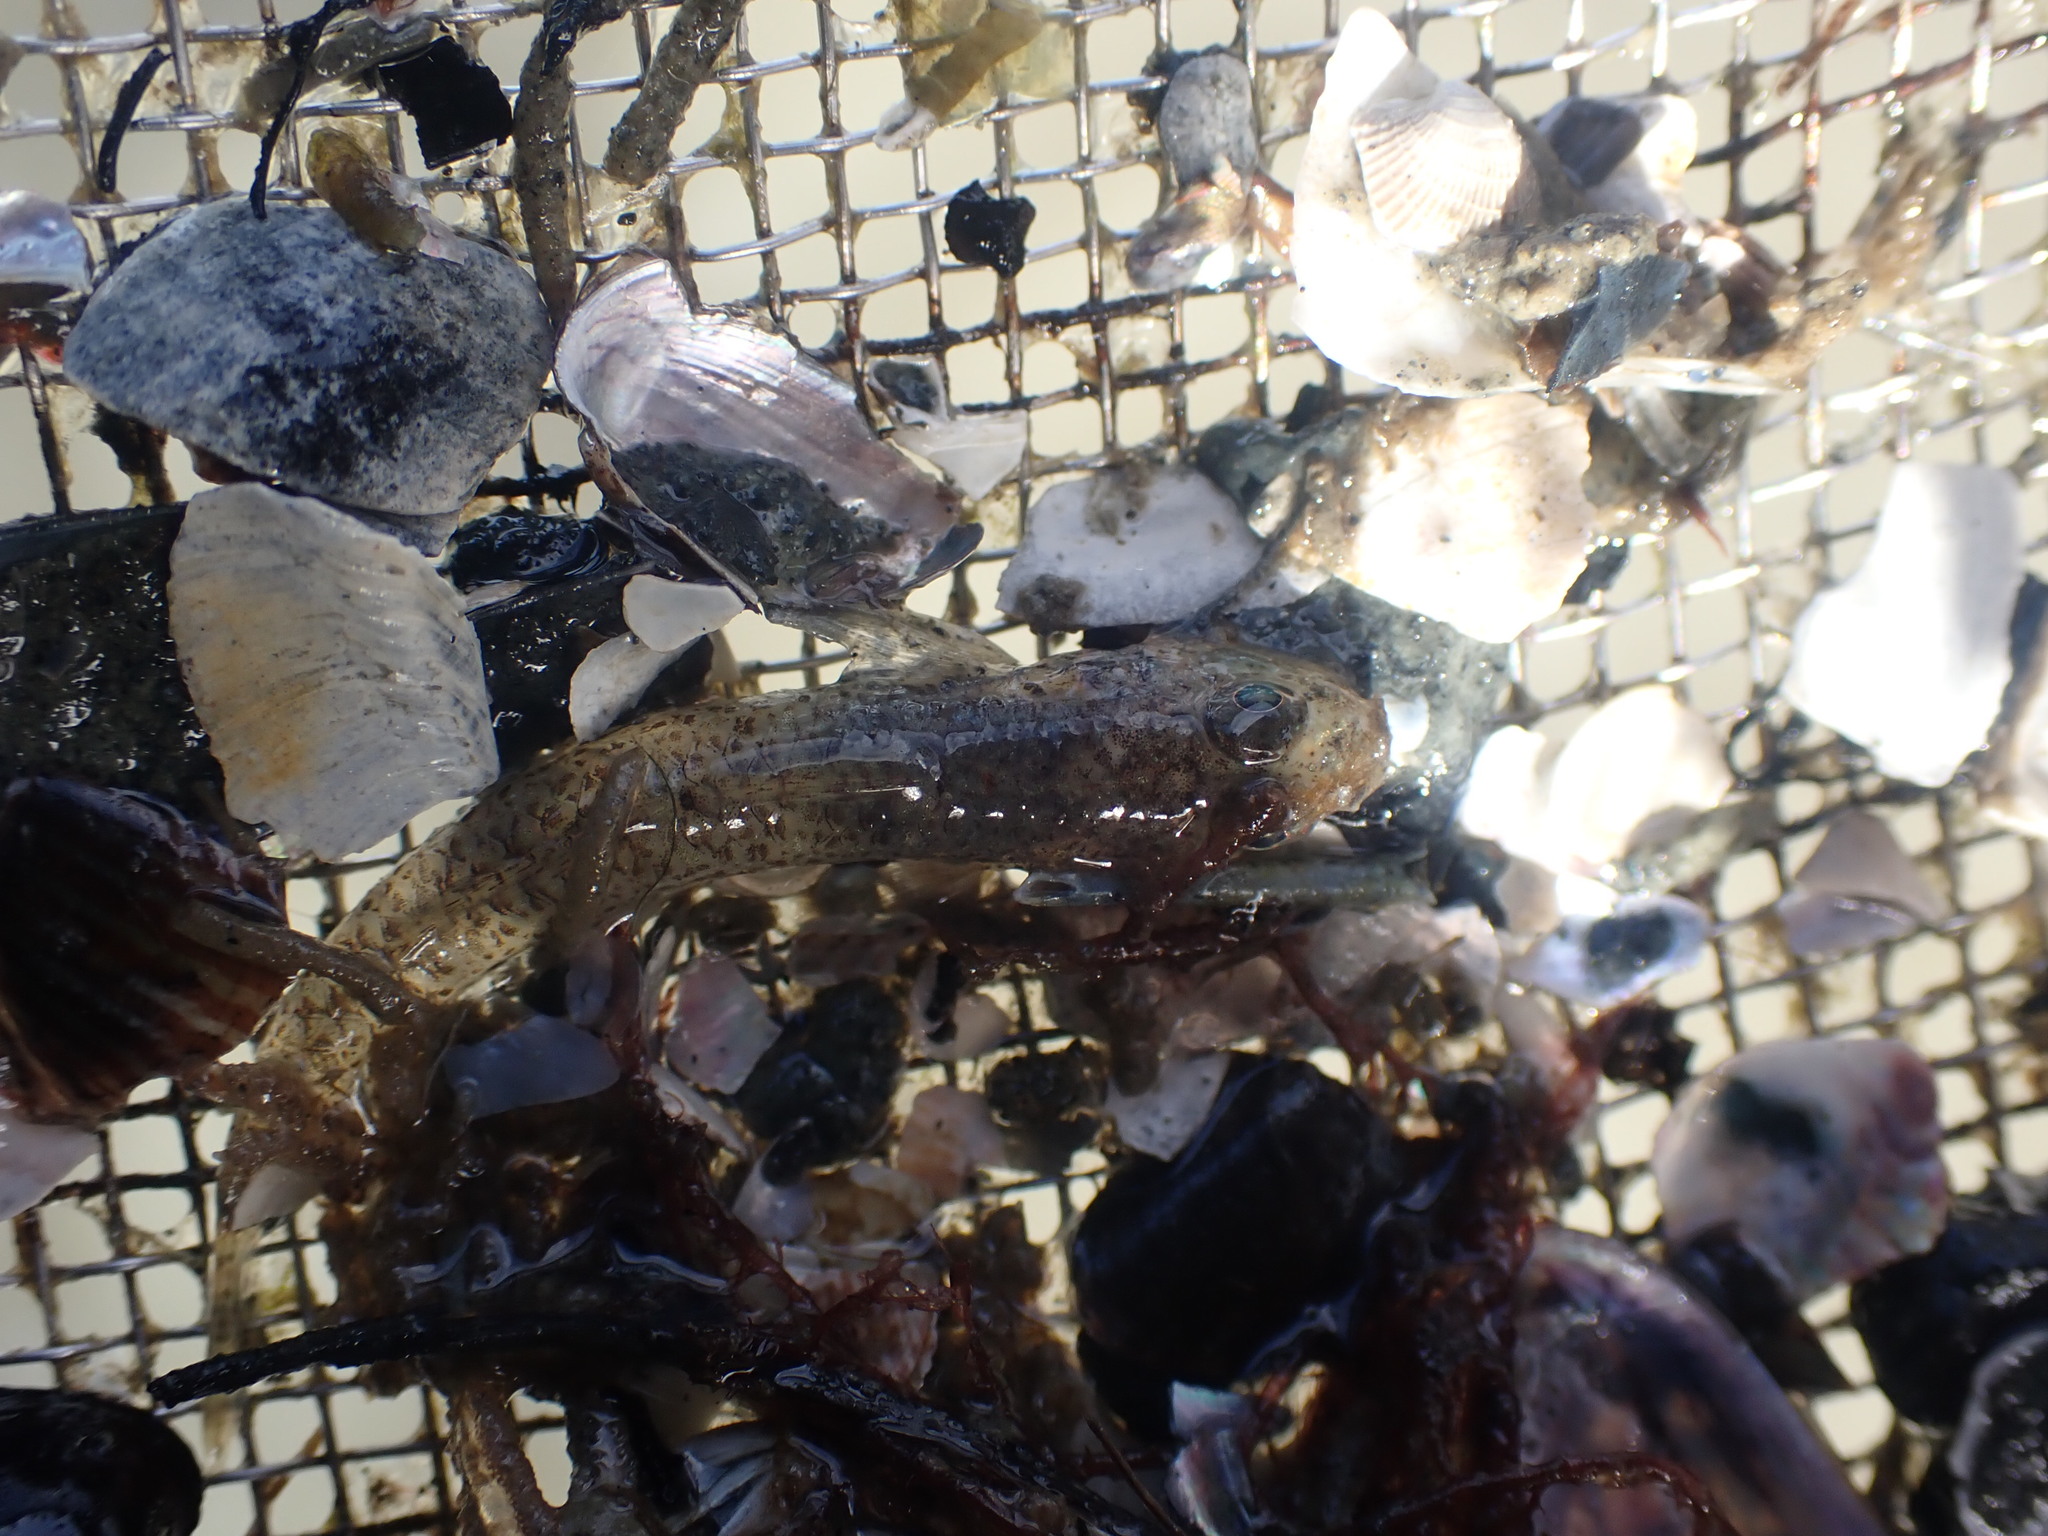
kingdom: Animalia
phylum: Chordata
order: Perciformes
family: Gobiidae
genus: Favonigobius
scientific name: Favonigobius exquisitus
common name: Exquisite sand-goby
